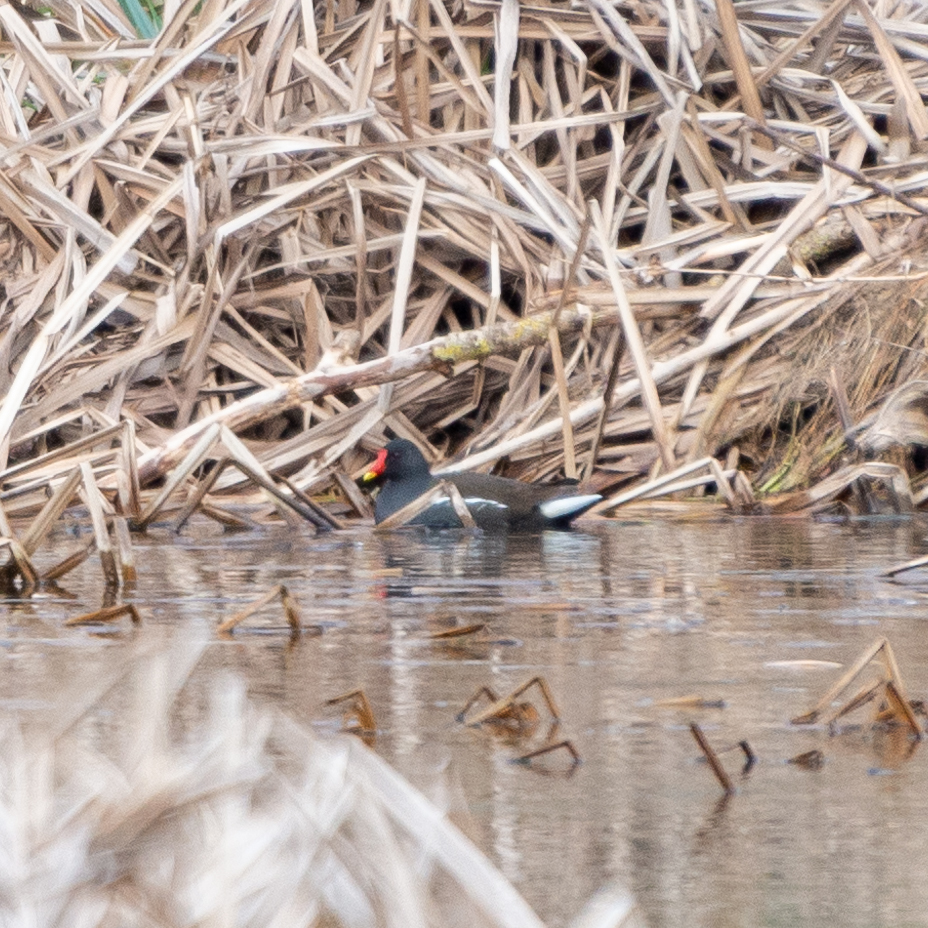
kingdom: Animalia
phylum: Chordata
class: Aves
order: Gruiformes
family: Rallidae
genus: Gallinula
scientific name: Gallinula chloropus
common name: Common moorhen
